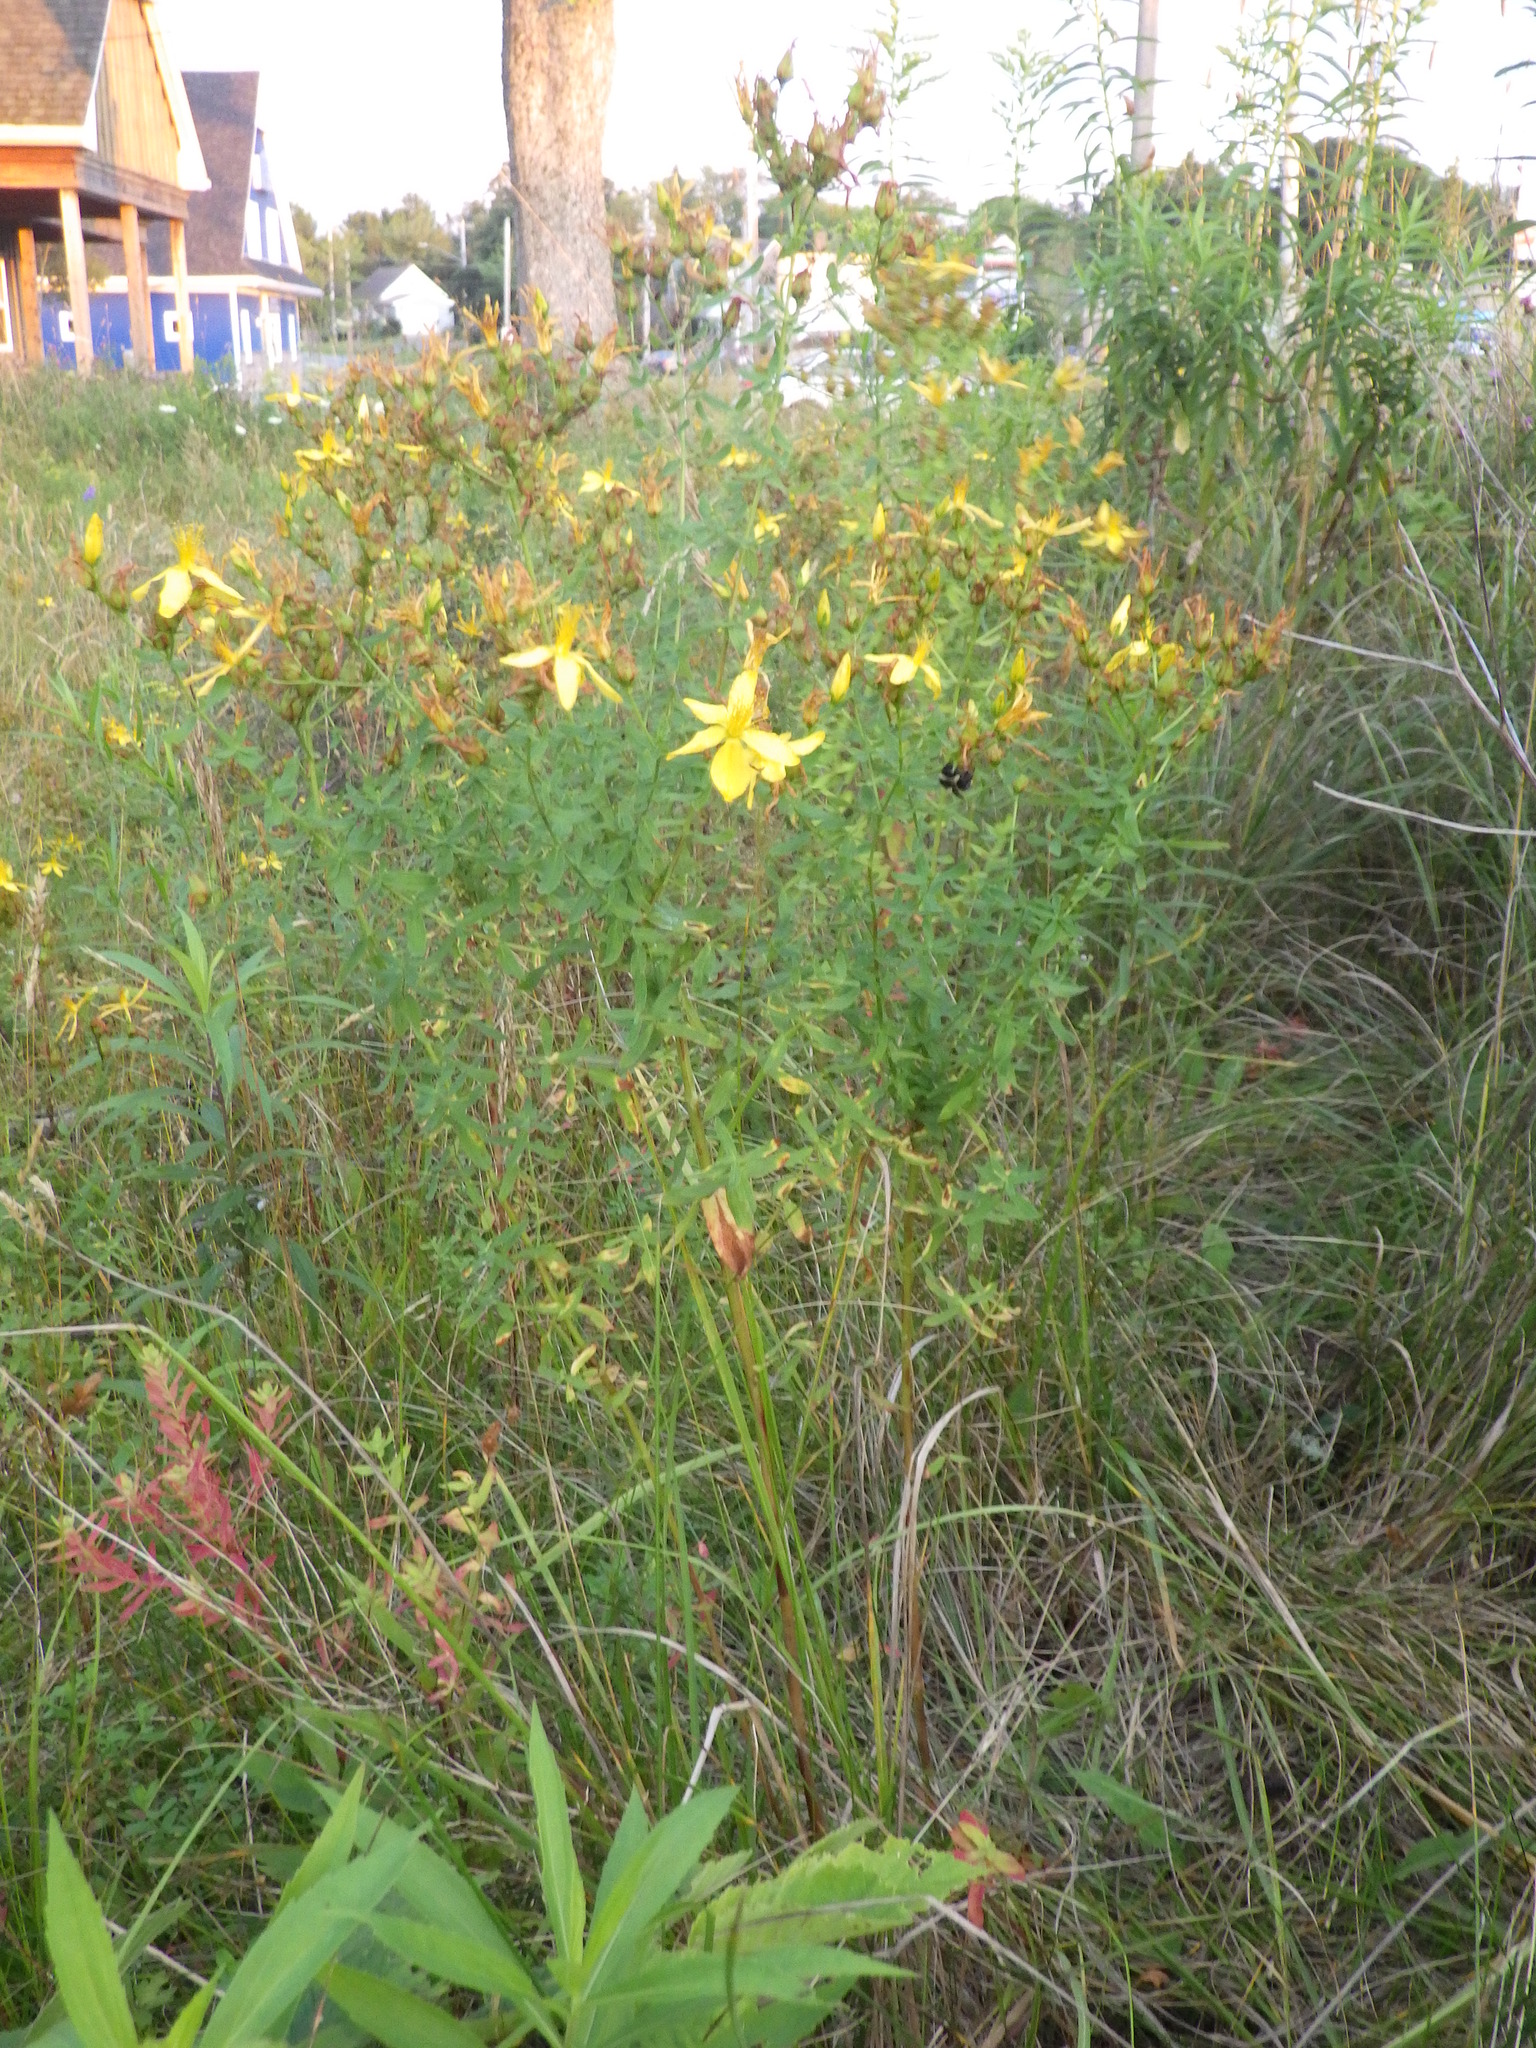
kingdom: Plantae
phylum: Tracheophyta
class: Magnoliopsida
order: Malpighiales
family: Hypericaceae
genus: Hypericum
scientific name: Hypericum perforatum
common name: Common st. johnswort
